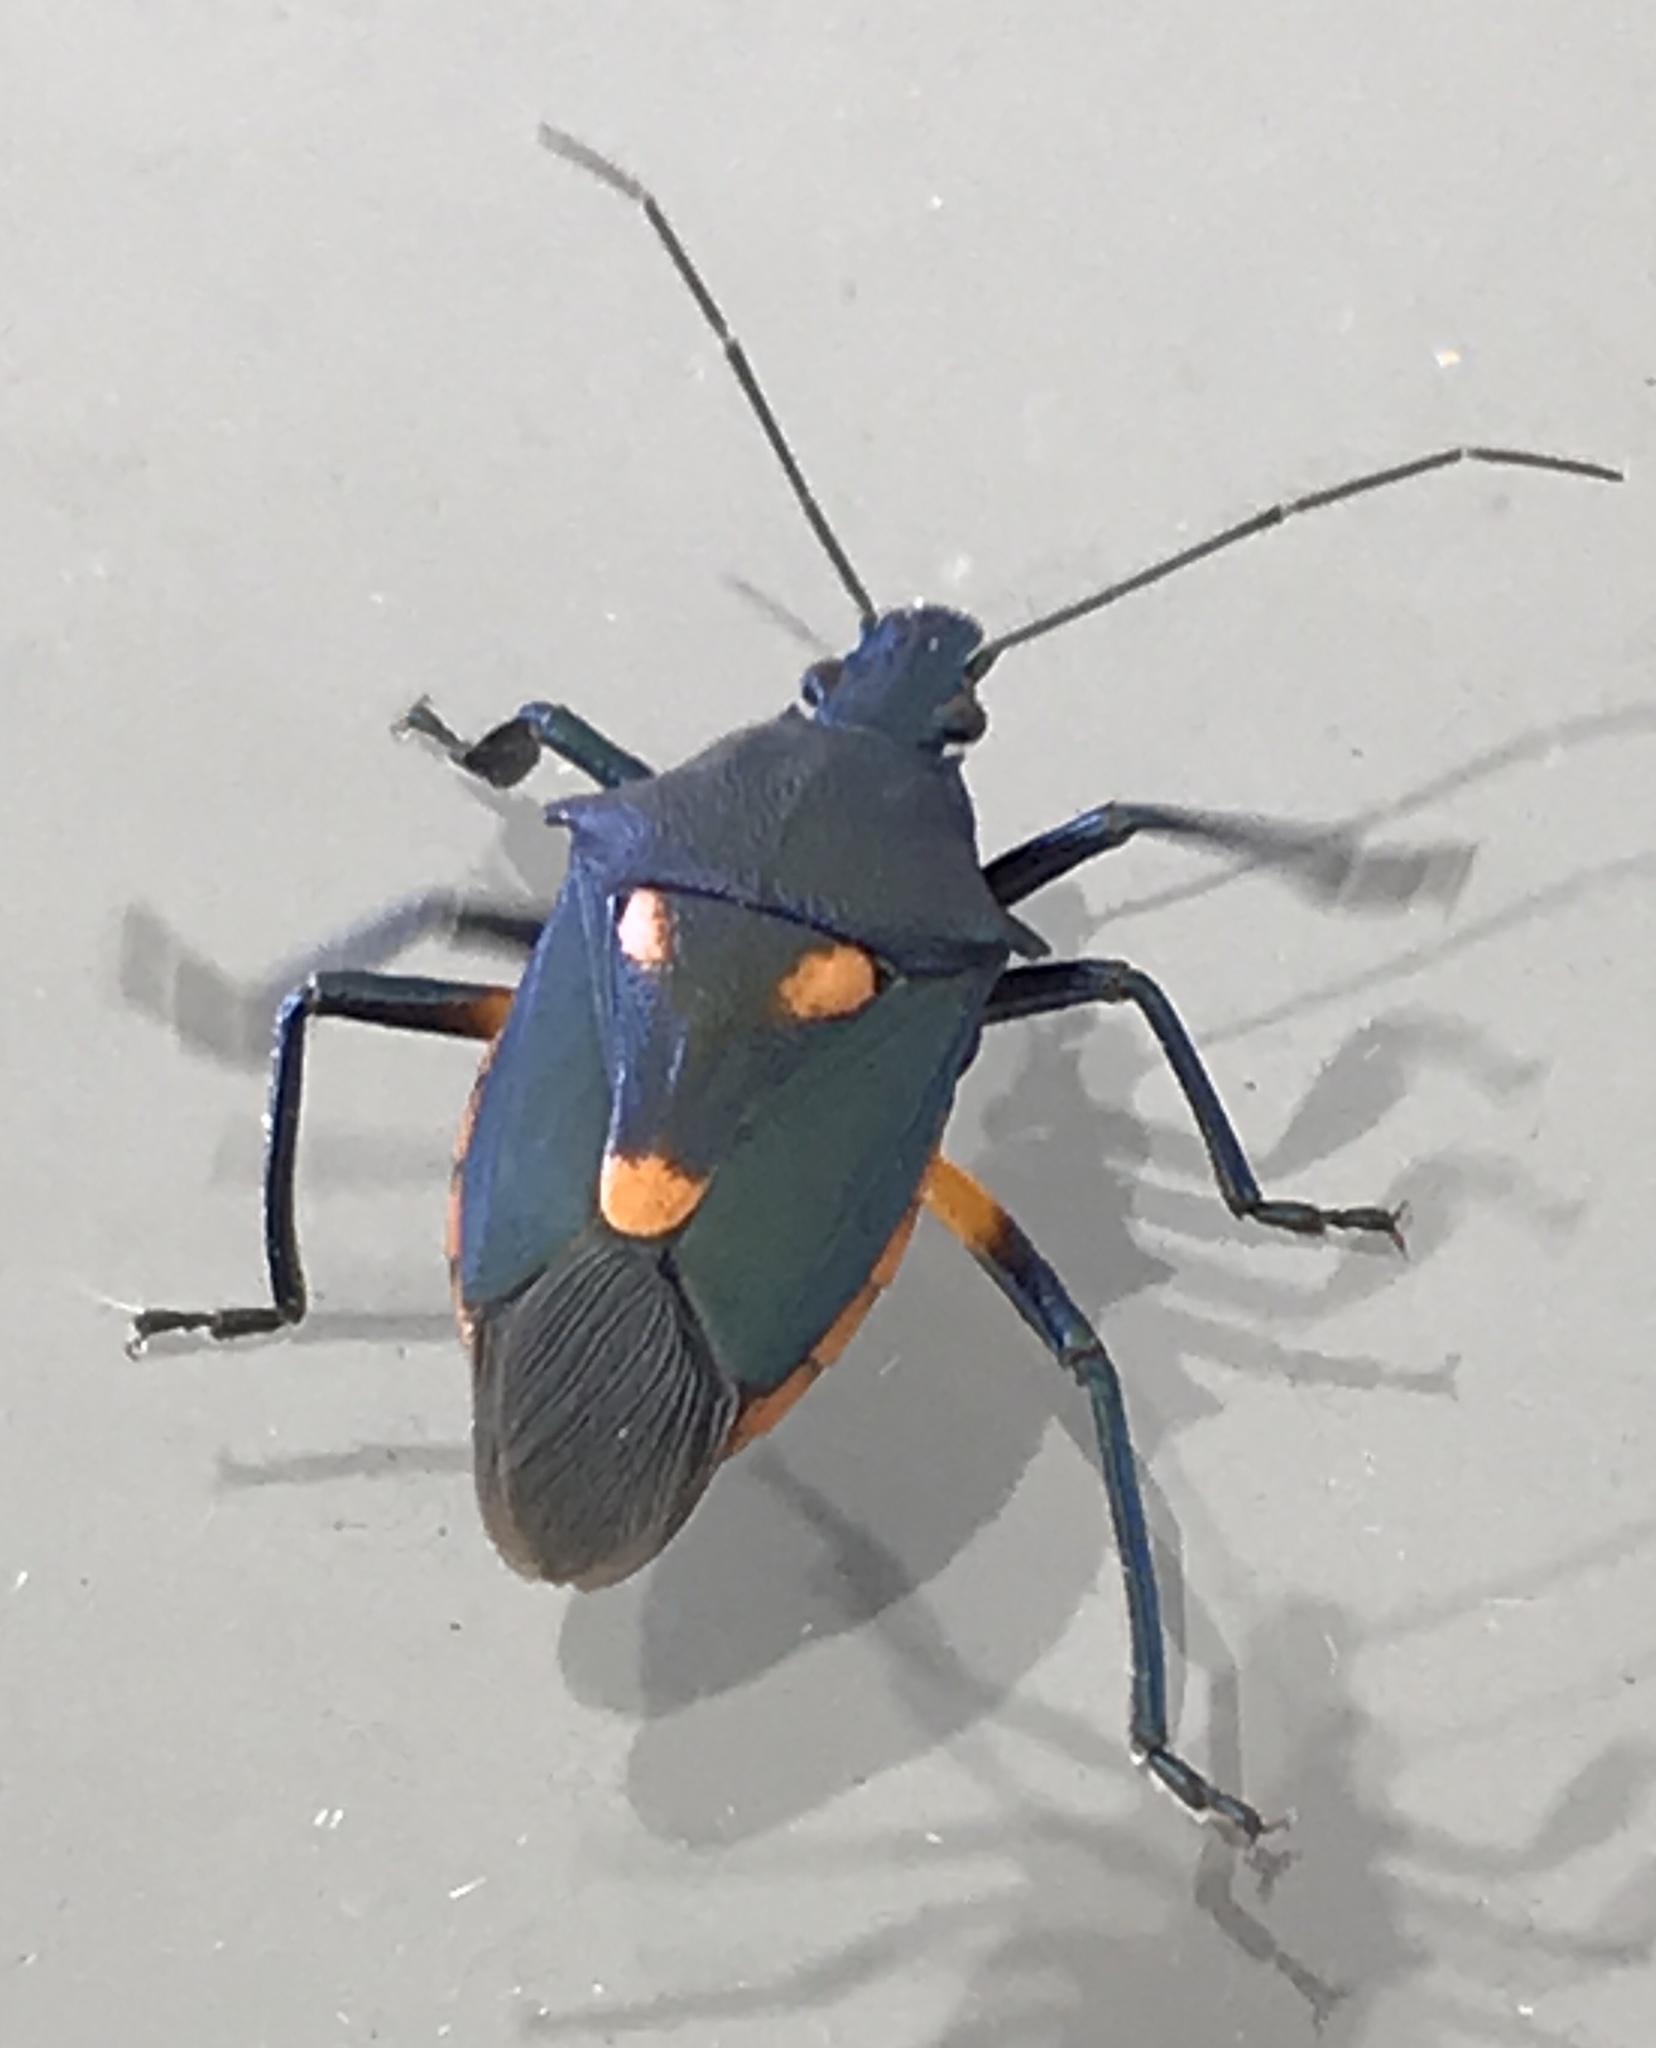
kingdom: Animalia
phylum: Arthropoda
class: Insecta
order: Hemiptera
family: Pentatomidae
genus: Euthyrhynchus
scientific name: Euthyrhynchus floridanus
